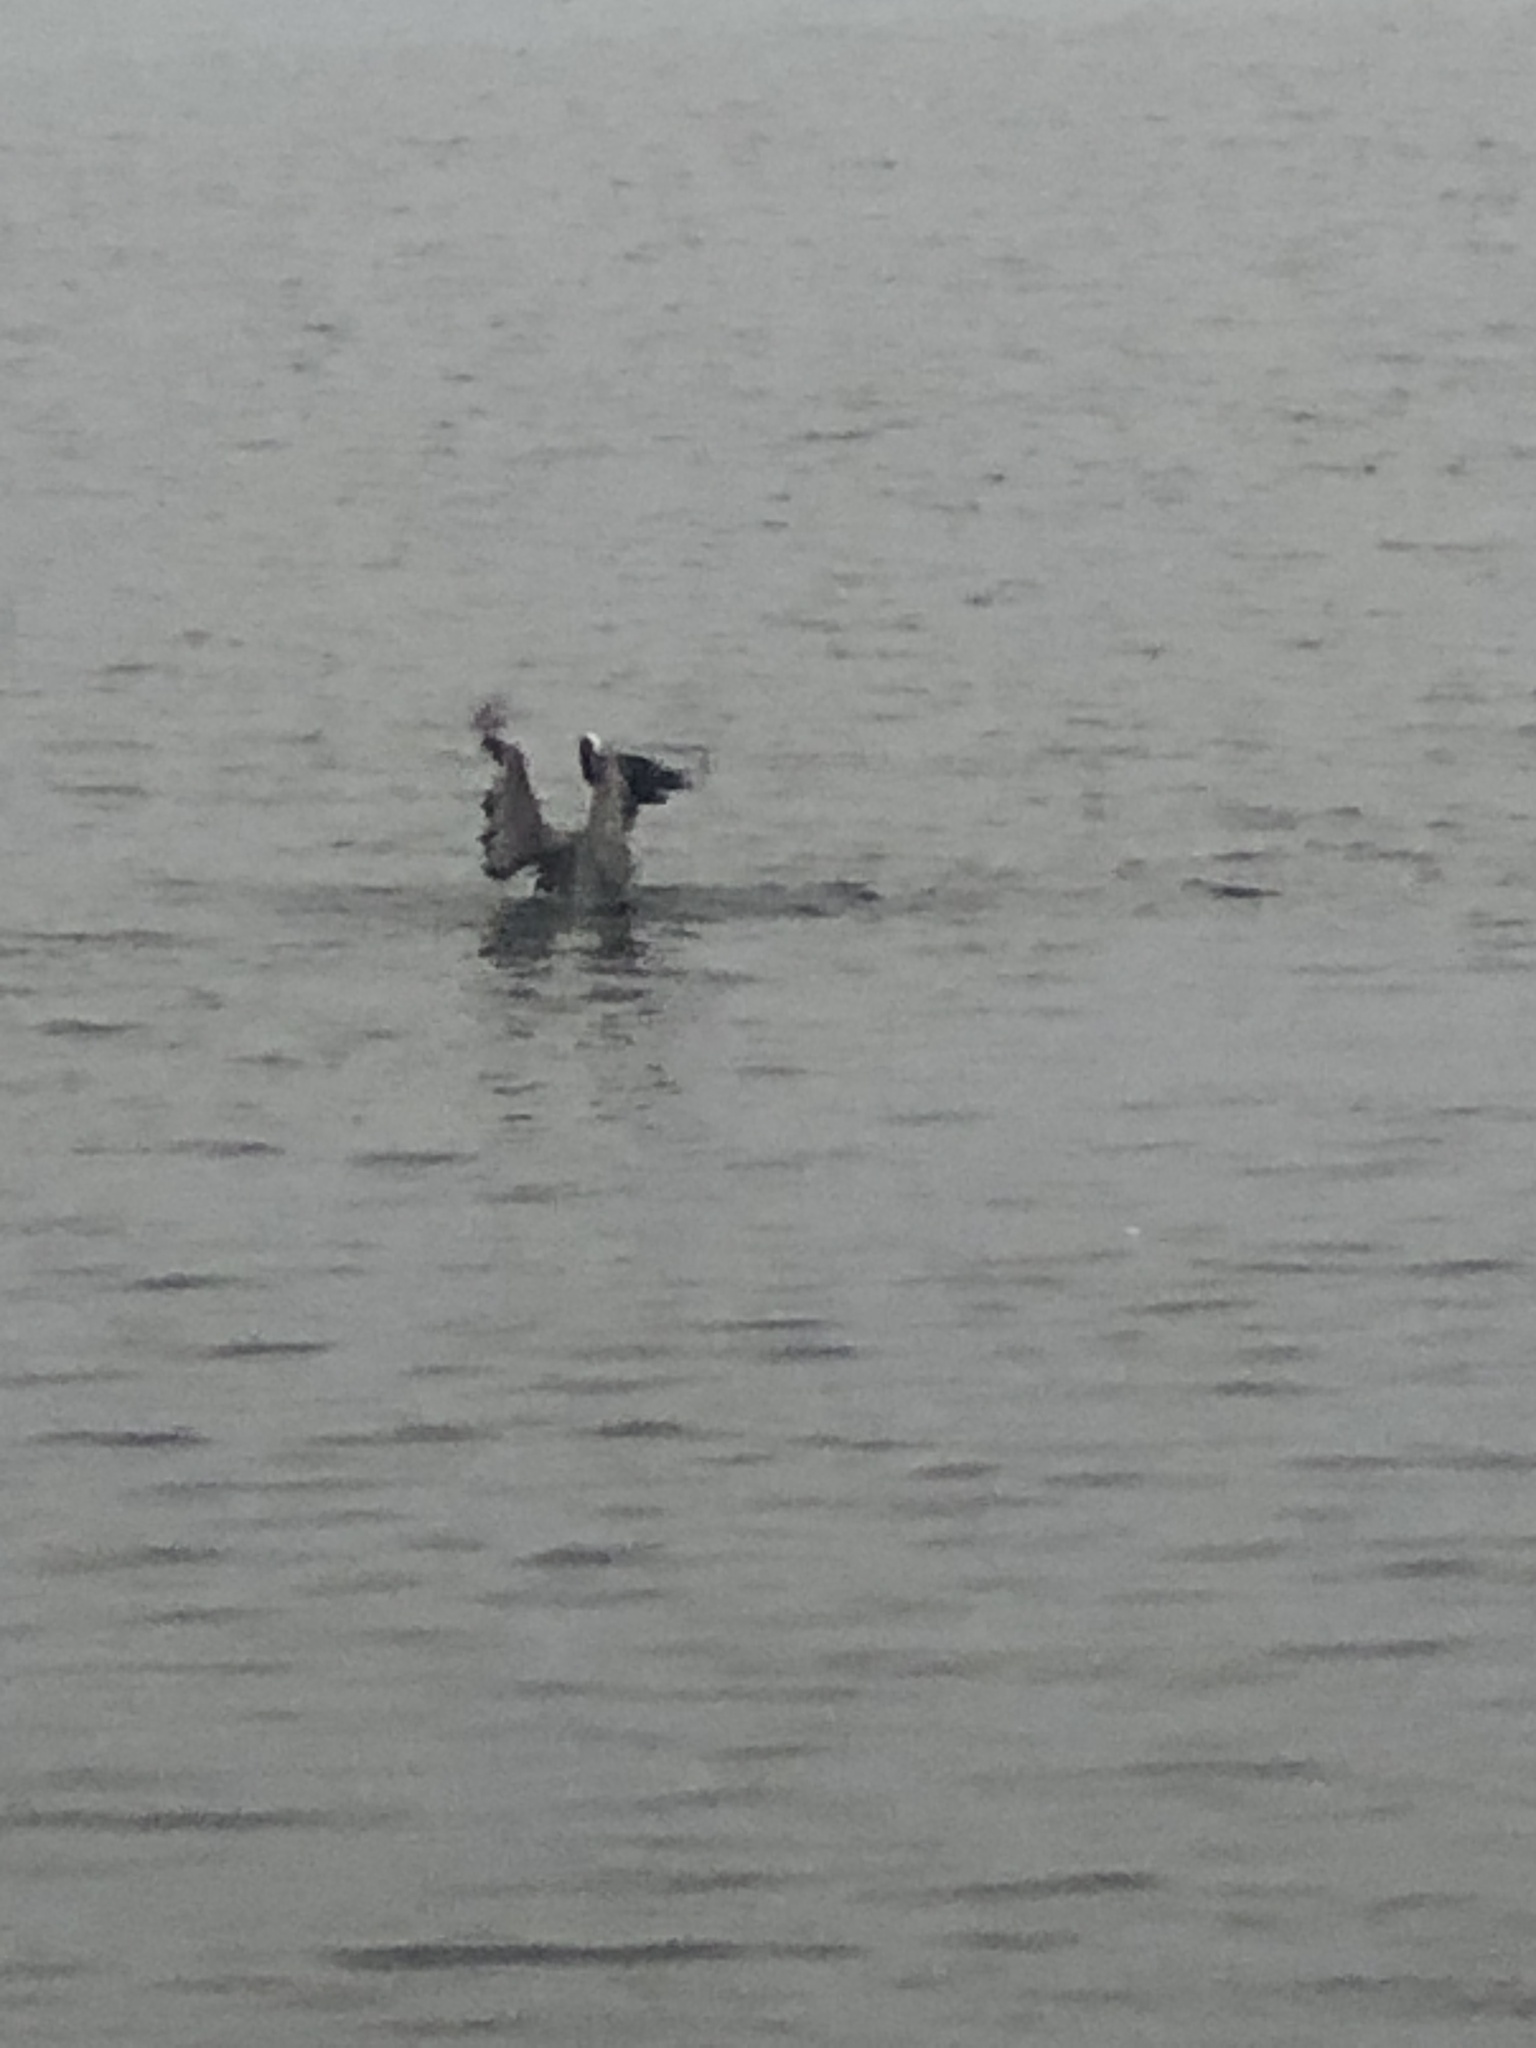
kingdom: Animalia
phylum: Chordata
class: Aves
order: Pelecaniformes
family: Pelecanidae
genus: Pelecanus
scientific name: Pelecanus occidentalis
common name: Brown pelican
